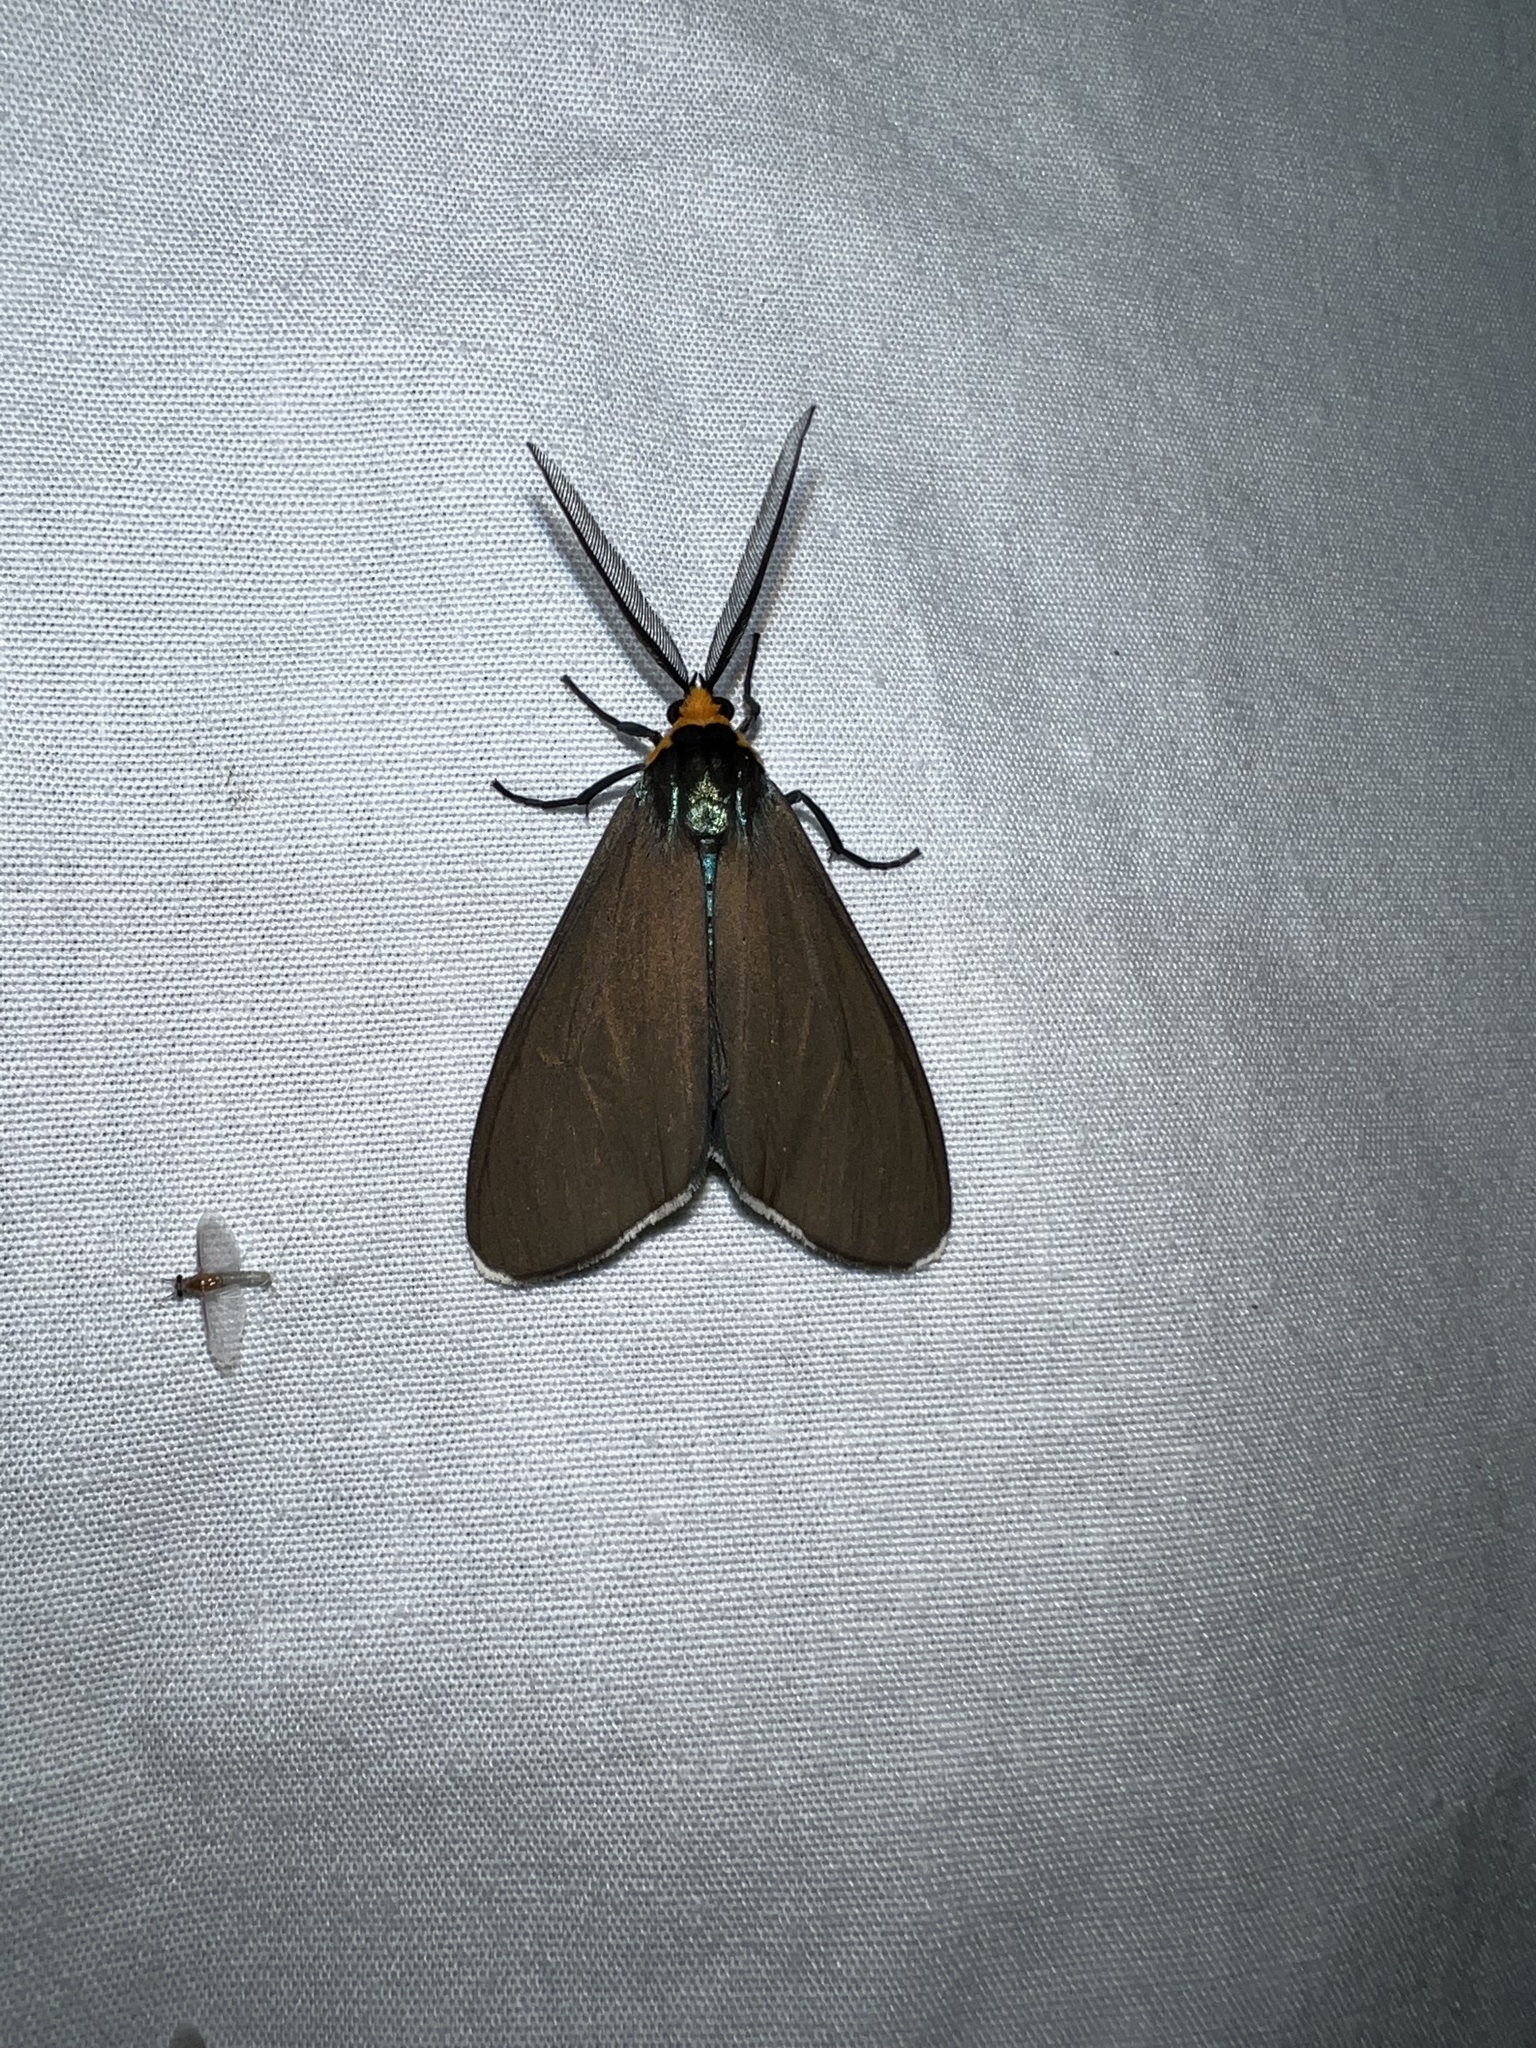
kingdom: Animalia
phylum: Arthropoda
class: Insecta
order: Lepidoptera
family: Erebidae
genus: Ctenucha
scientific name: Ctenucha virginica
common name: Virginia ctenucha moth
